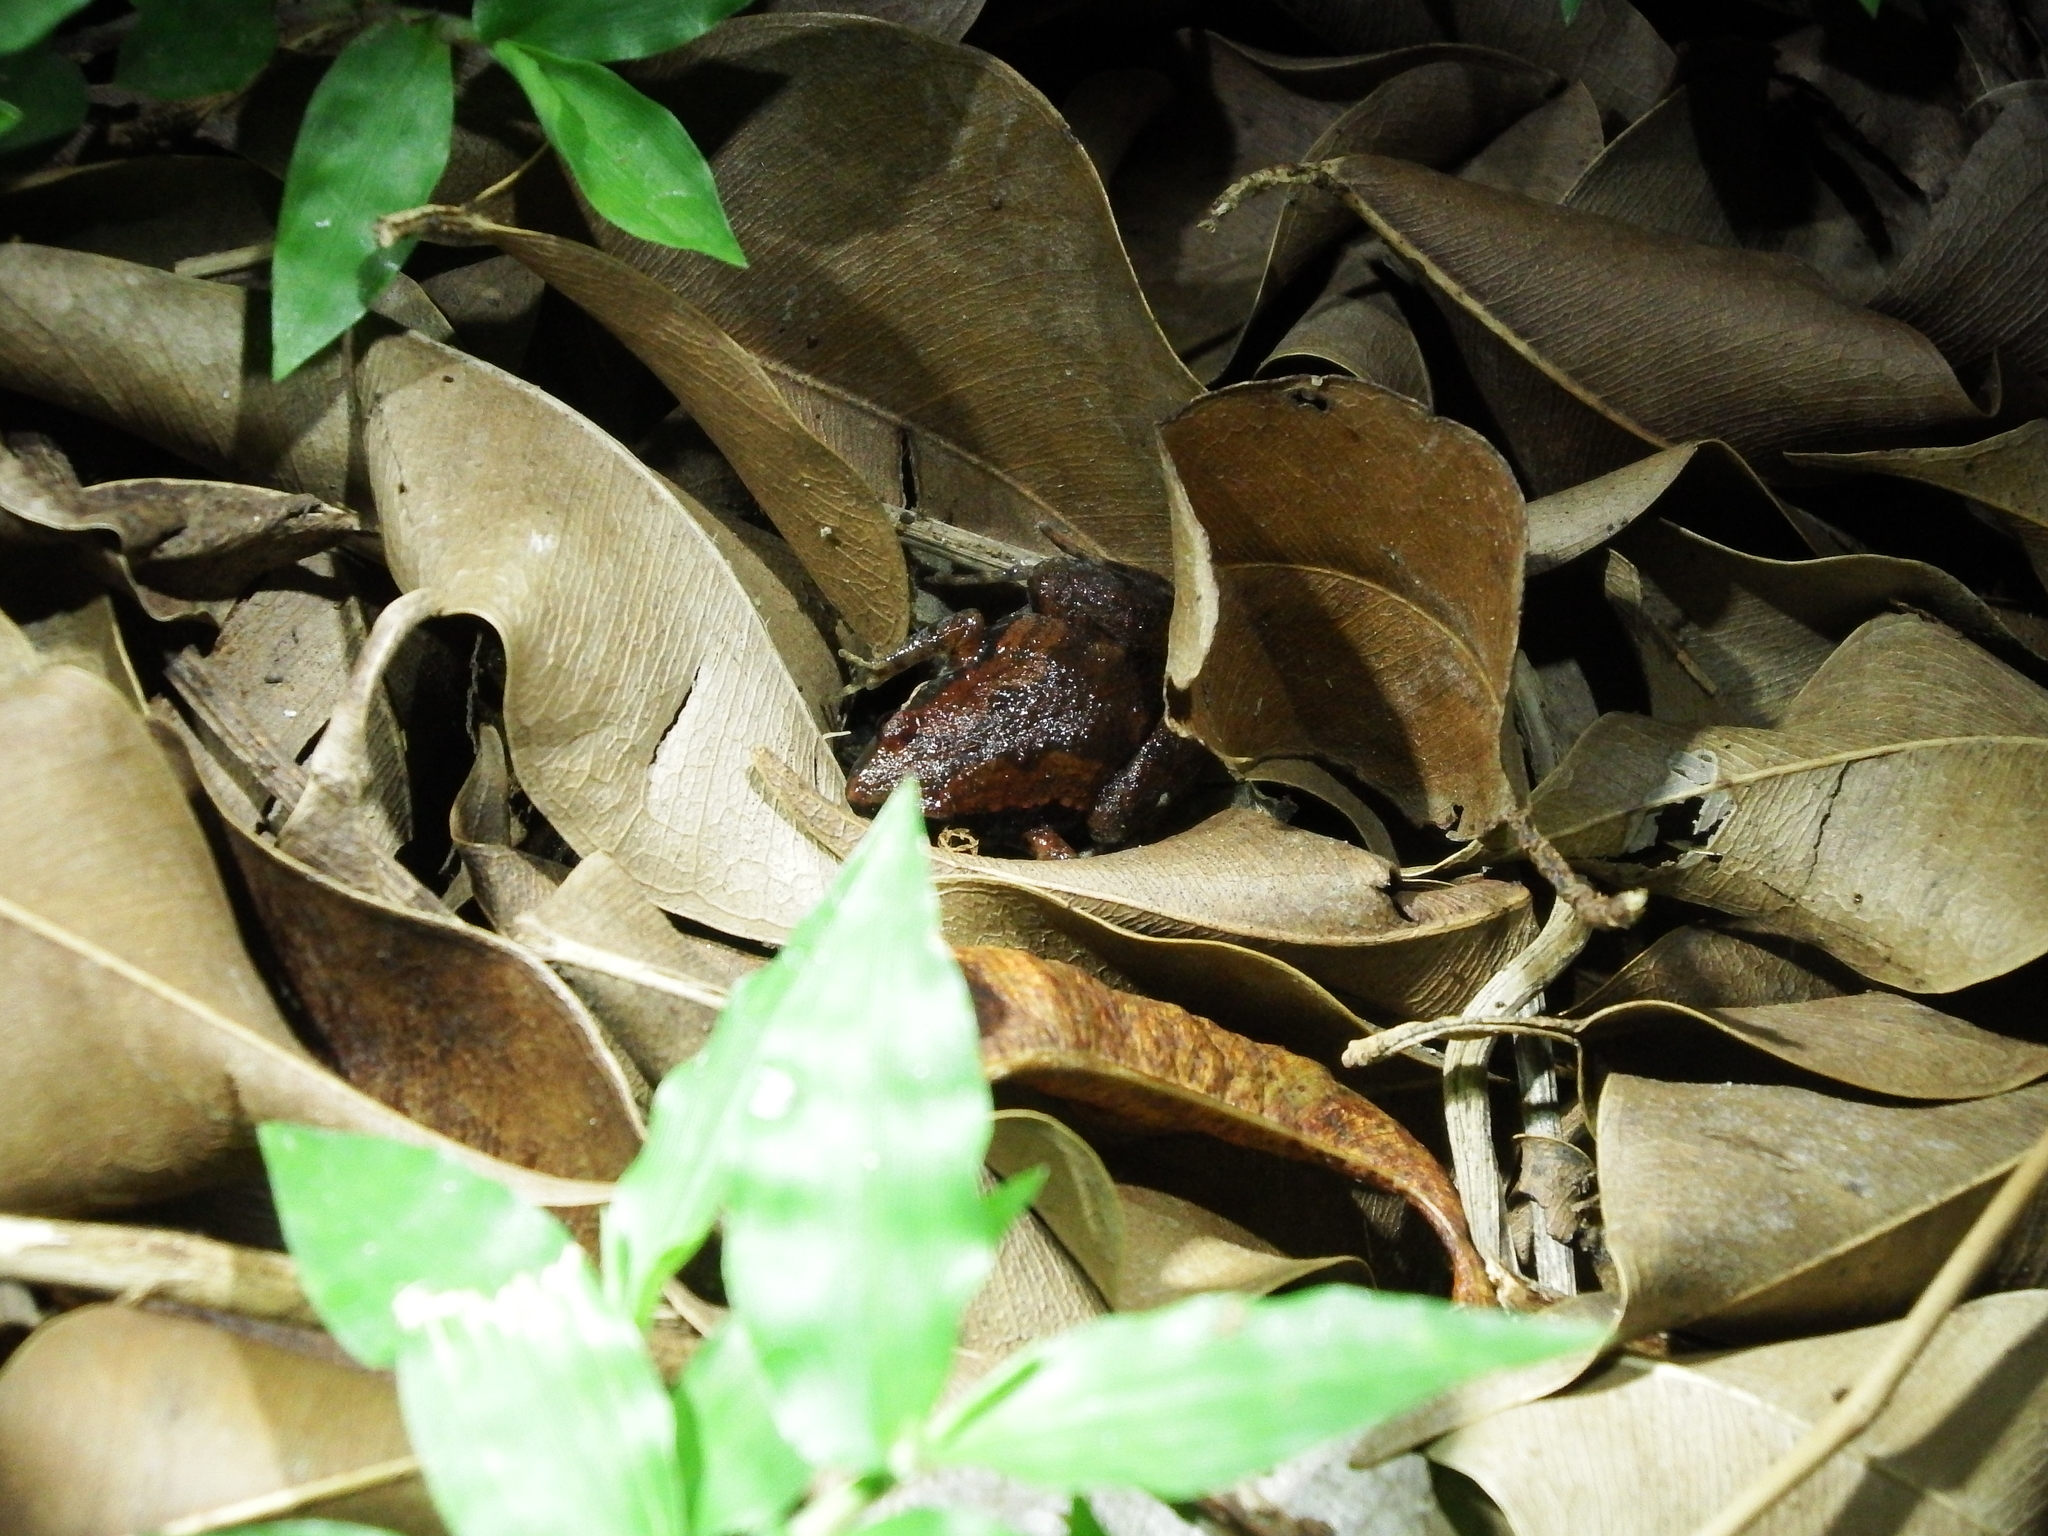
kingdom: Animalia
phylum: Chordata
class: Amphibia
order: Anura
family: Microhylidae
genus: Microhyla
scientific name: Microhyla fissipes
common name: Ornate narrow-mouthed frog
